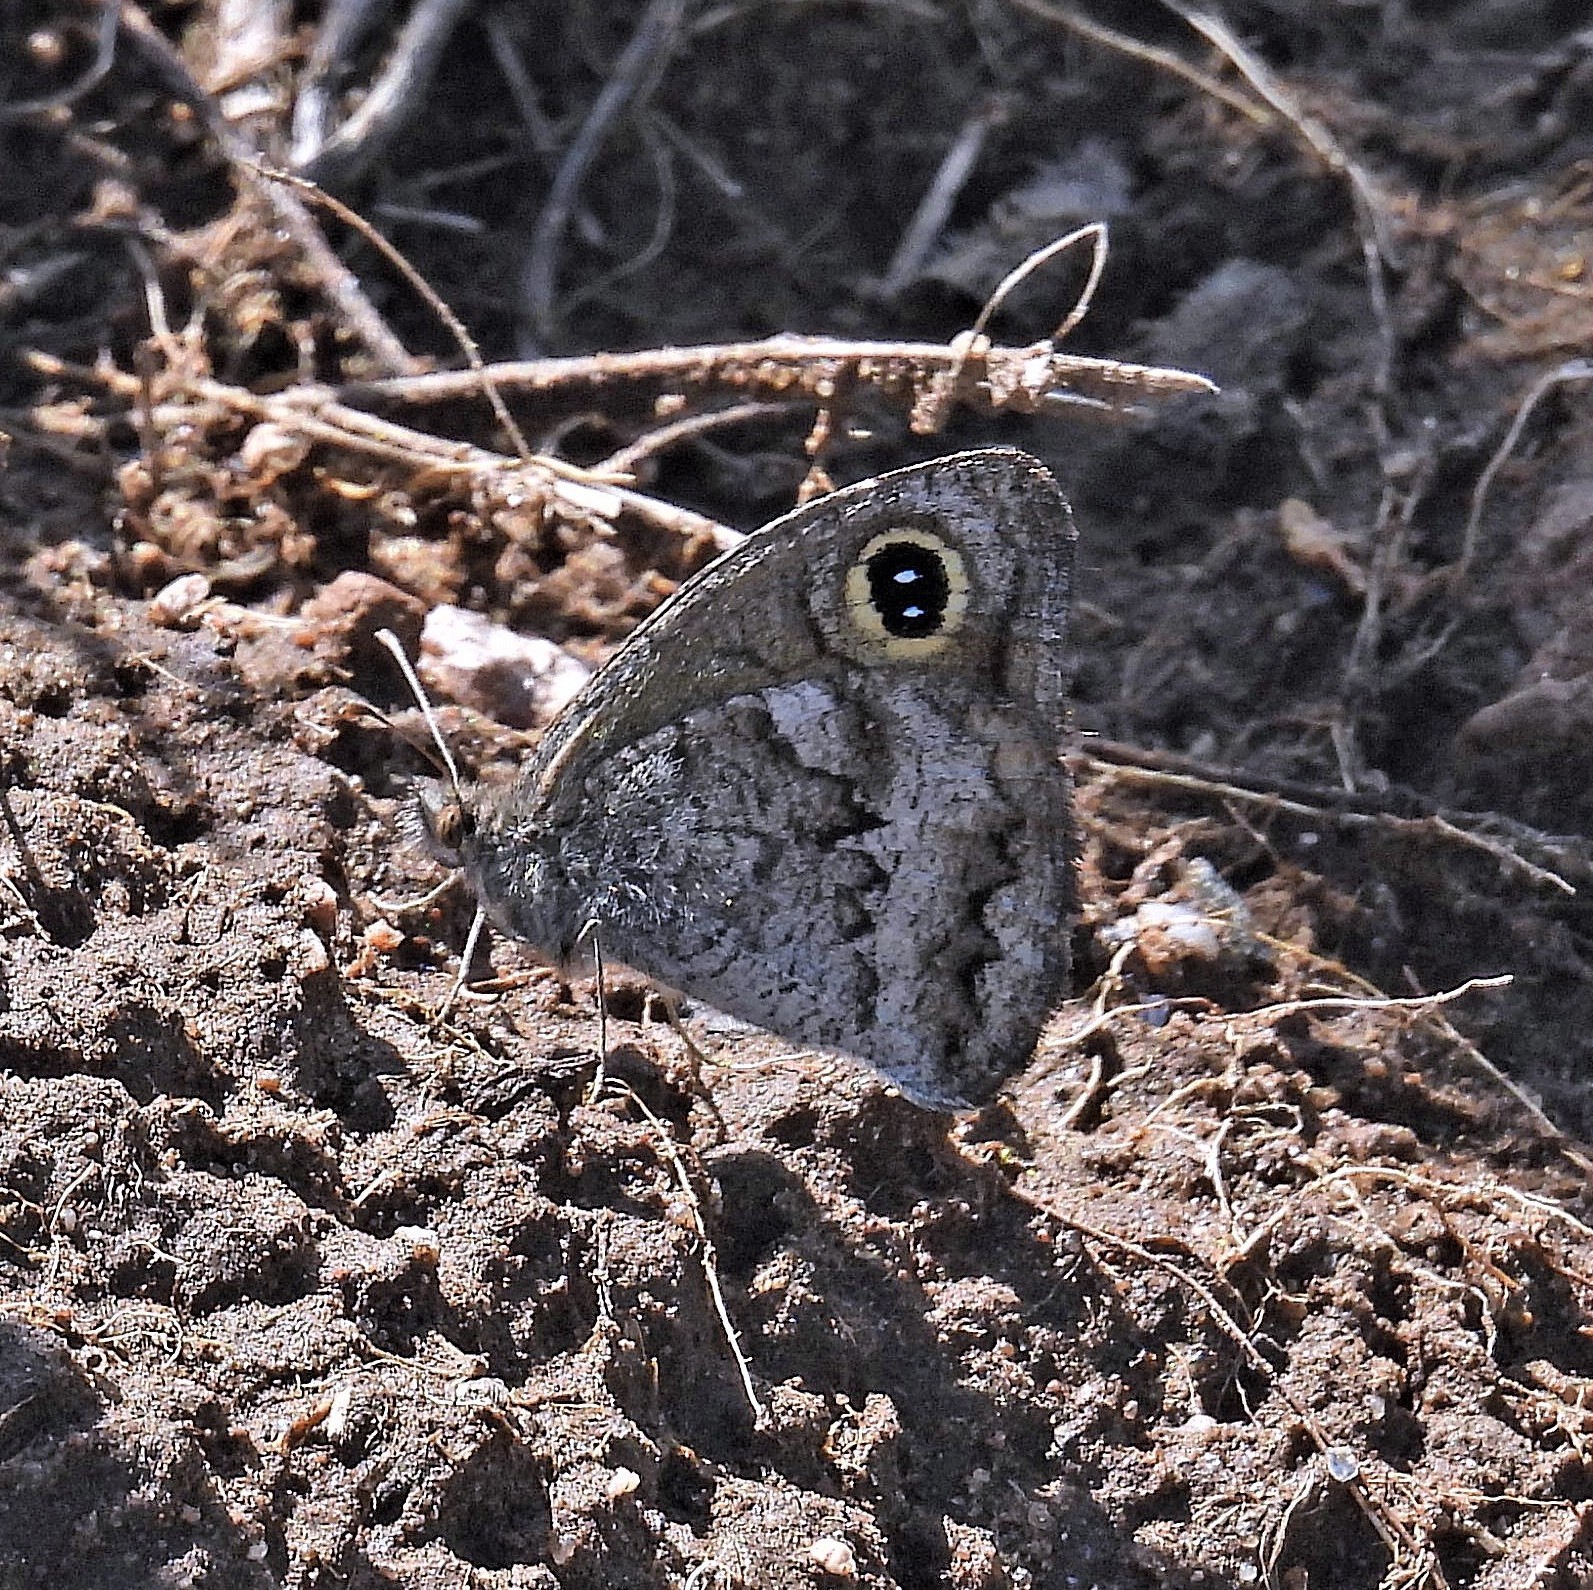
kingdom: Animalia
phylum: Arthropoda
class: Insecta
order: Lepidoptera
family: Nymphalidae
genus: Pampasatyrus
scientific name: Pampasatyrus yacantoensis
